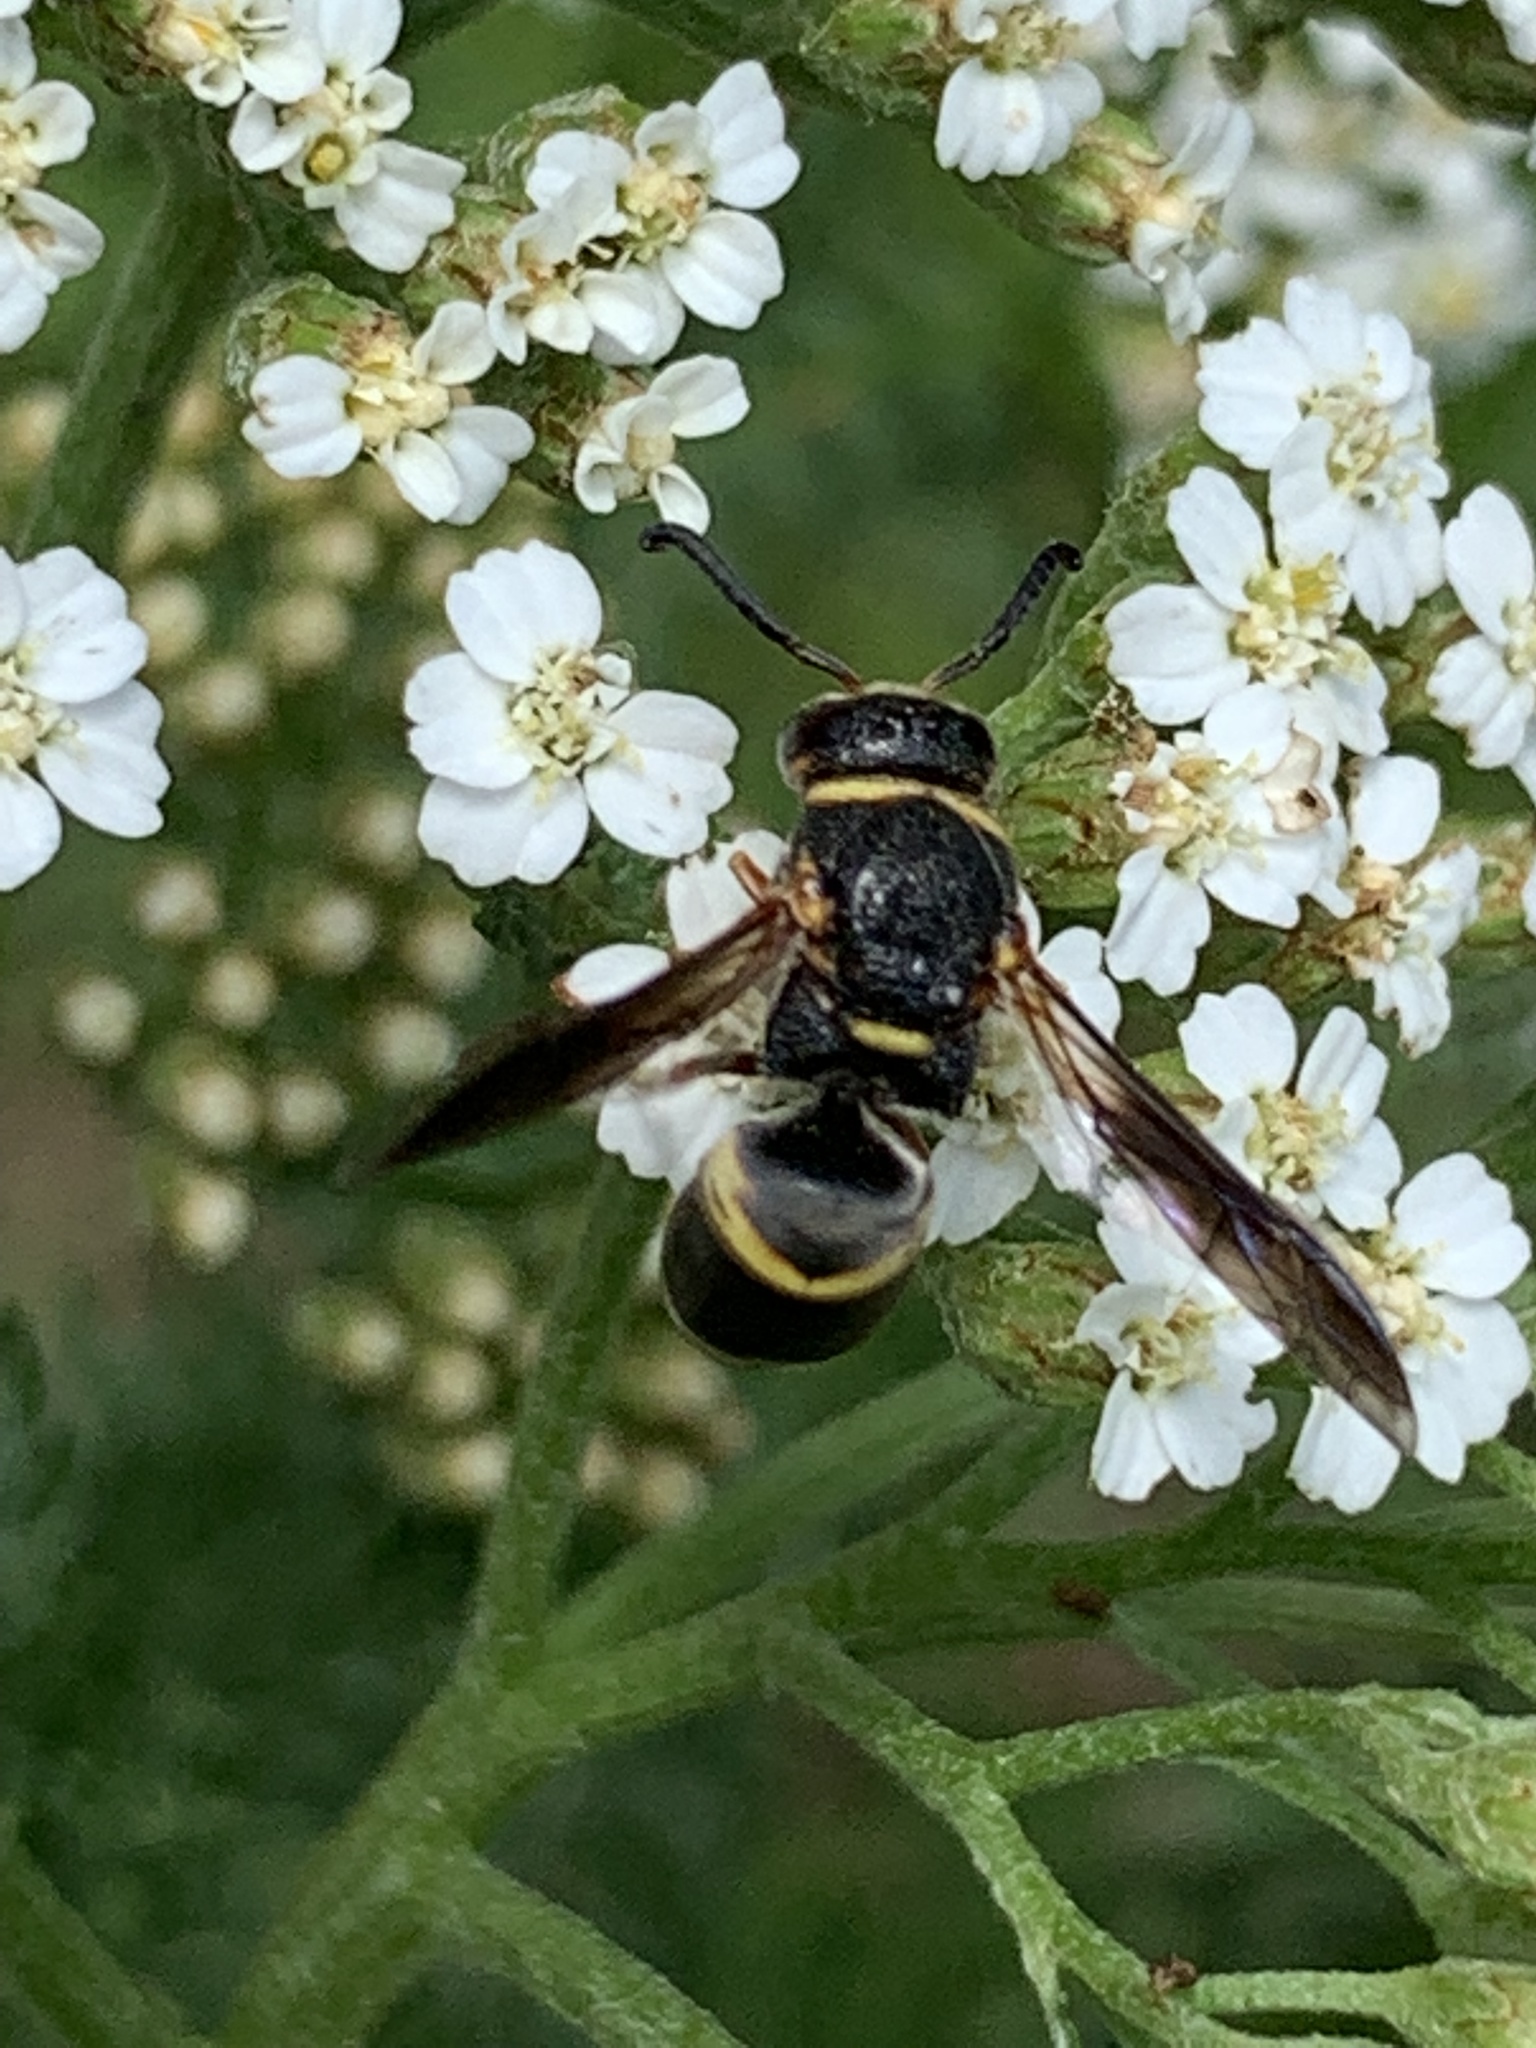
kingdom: Animalia
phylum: Arthropoda
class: Insecta
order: Hymenoptera
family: Eumenidae
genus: Euodynerus
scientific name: Euodynerus hidalgo
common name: Wasp
